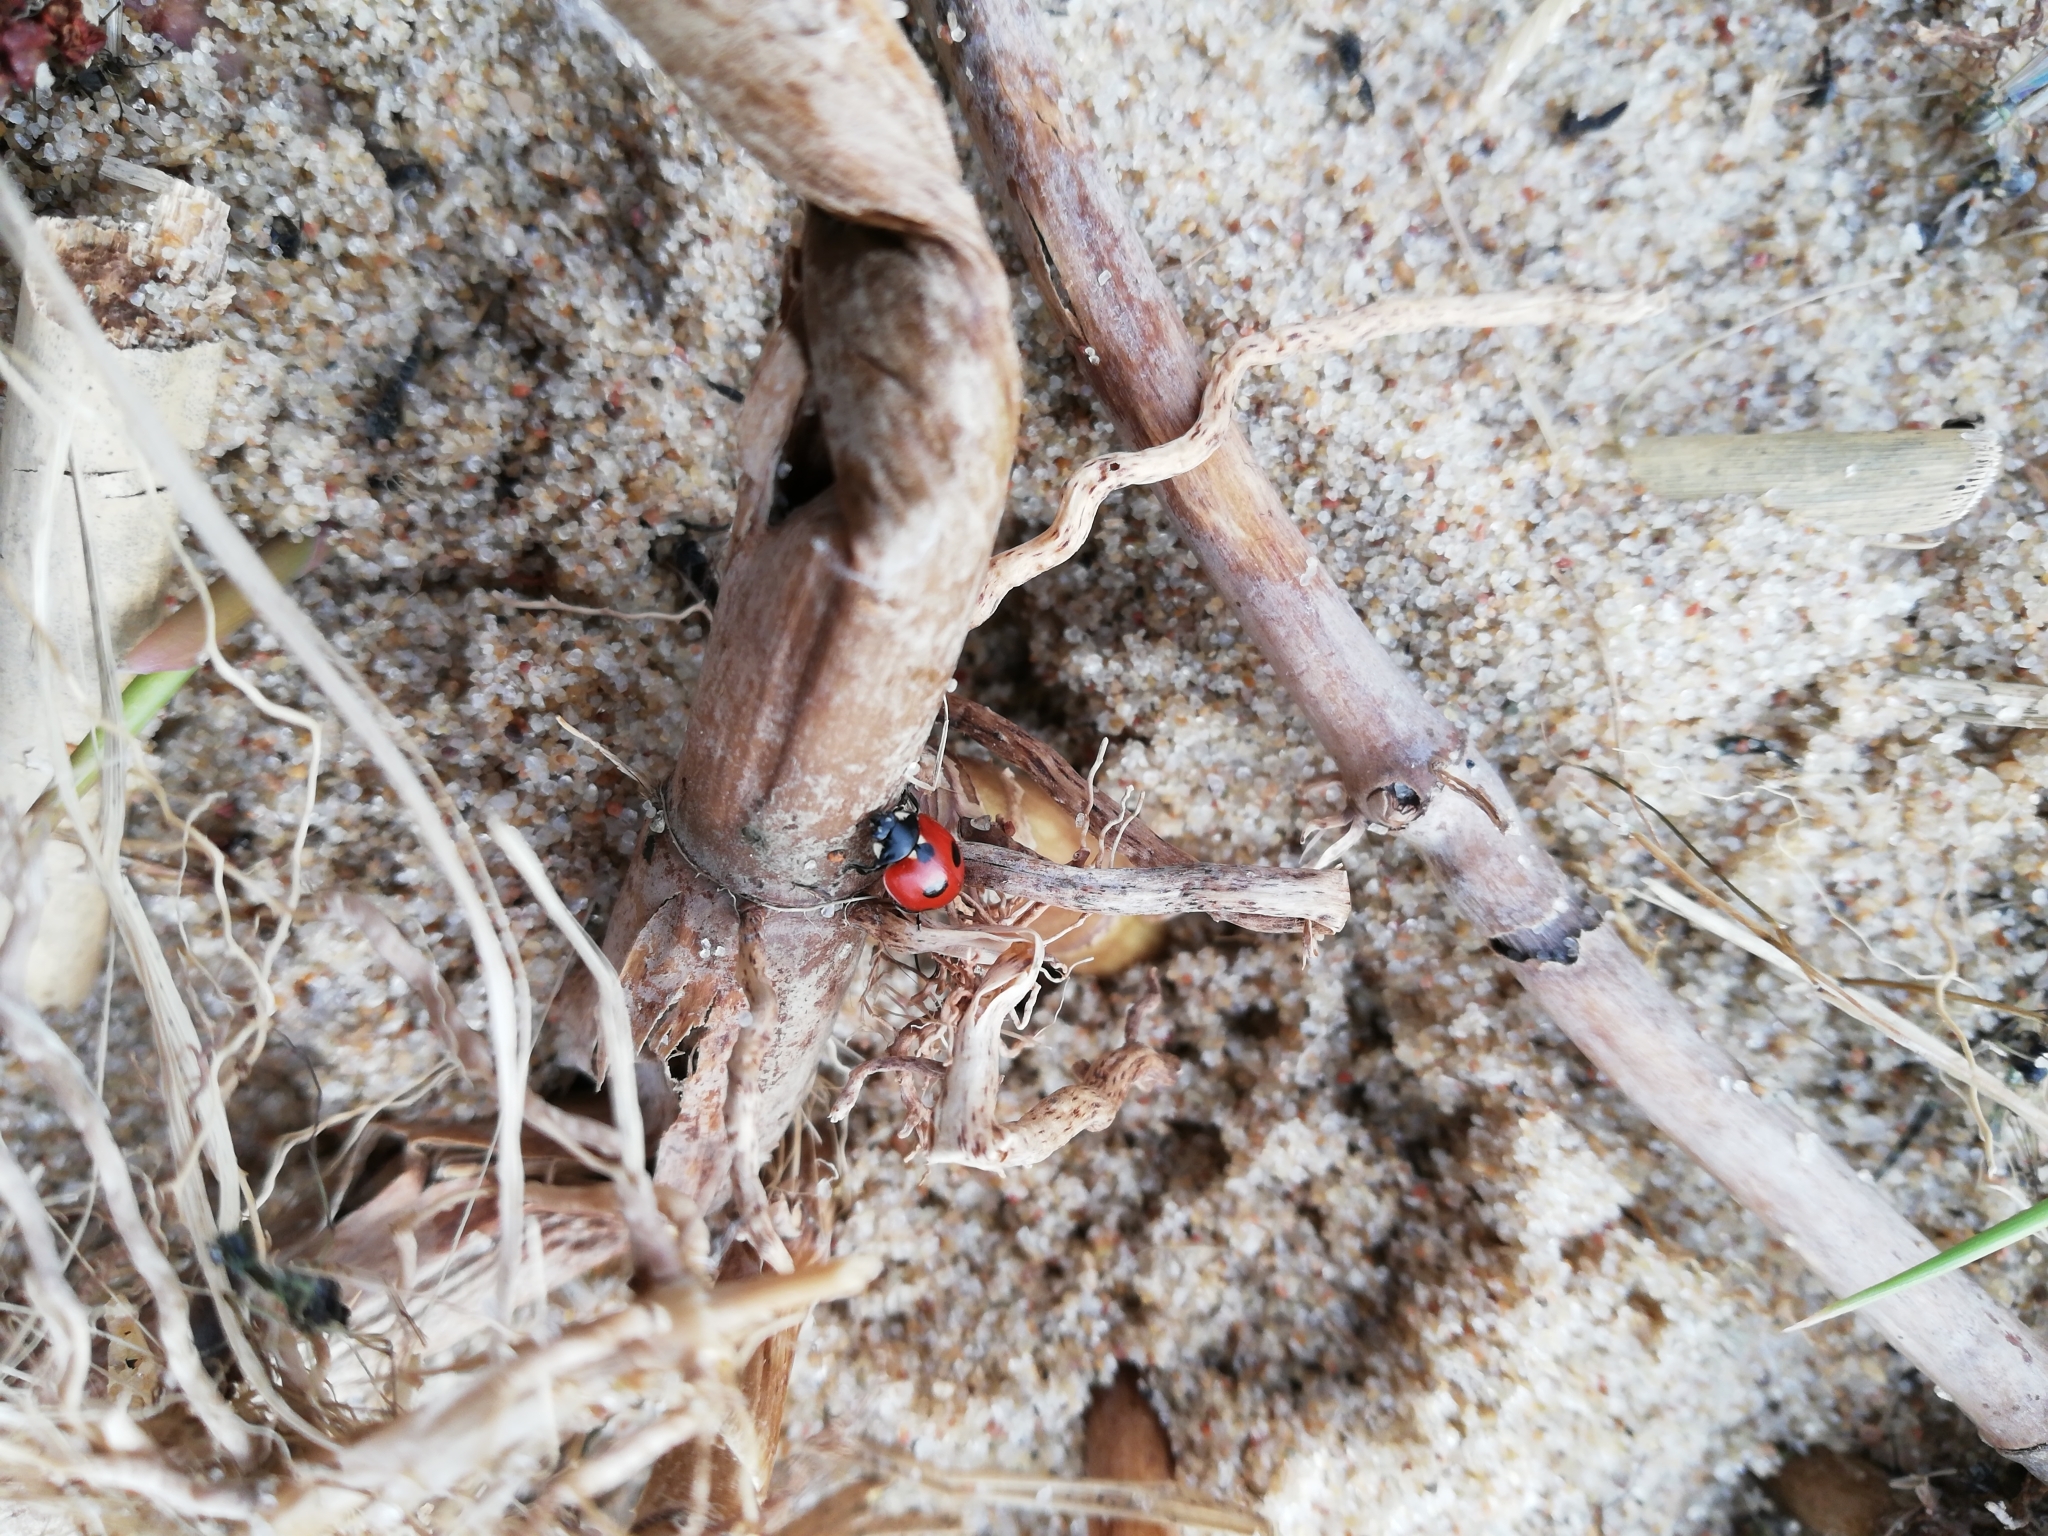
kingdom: Animalia
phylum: Arthropoda
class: Insecta
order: Coleoptera
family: Coccinellidae
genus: Coccinella
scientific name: Coccinella quinquepunctata
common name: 5-spot ladybird
